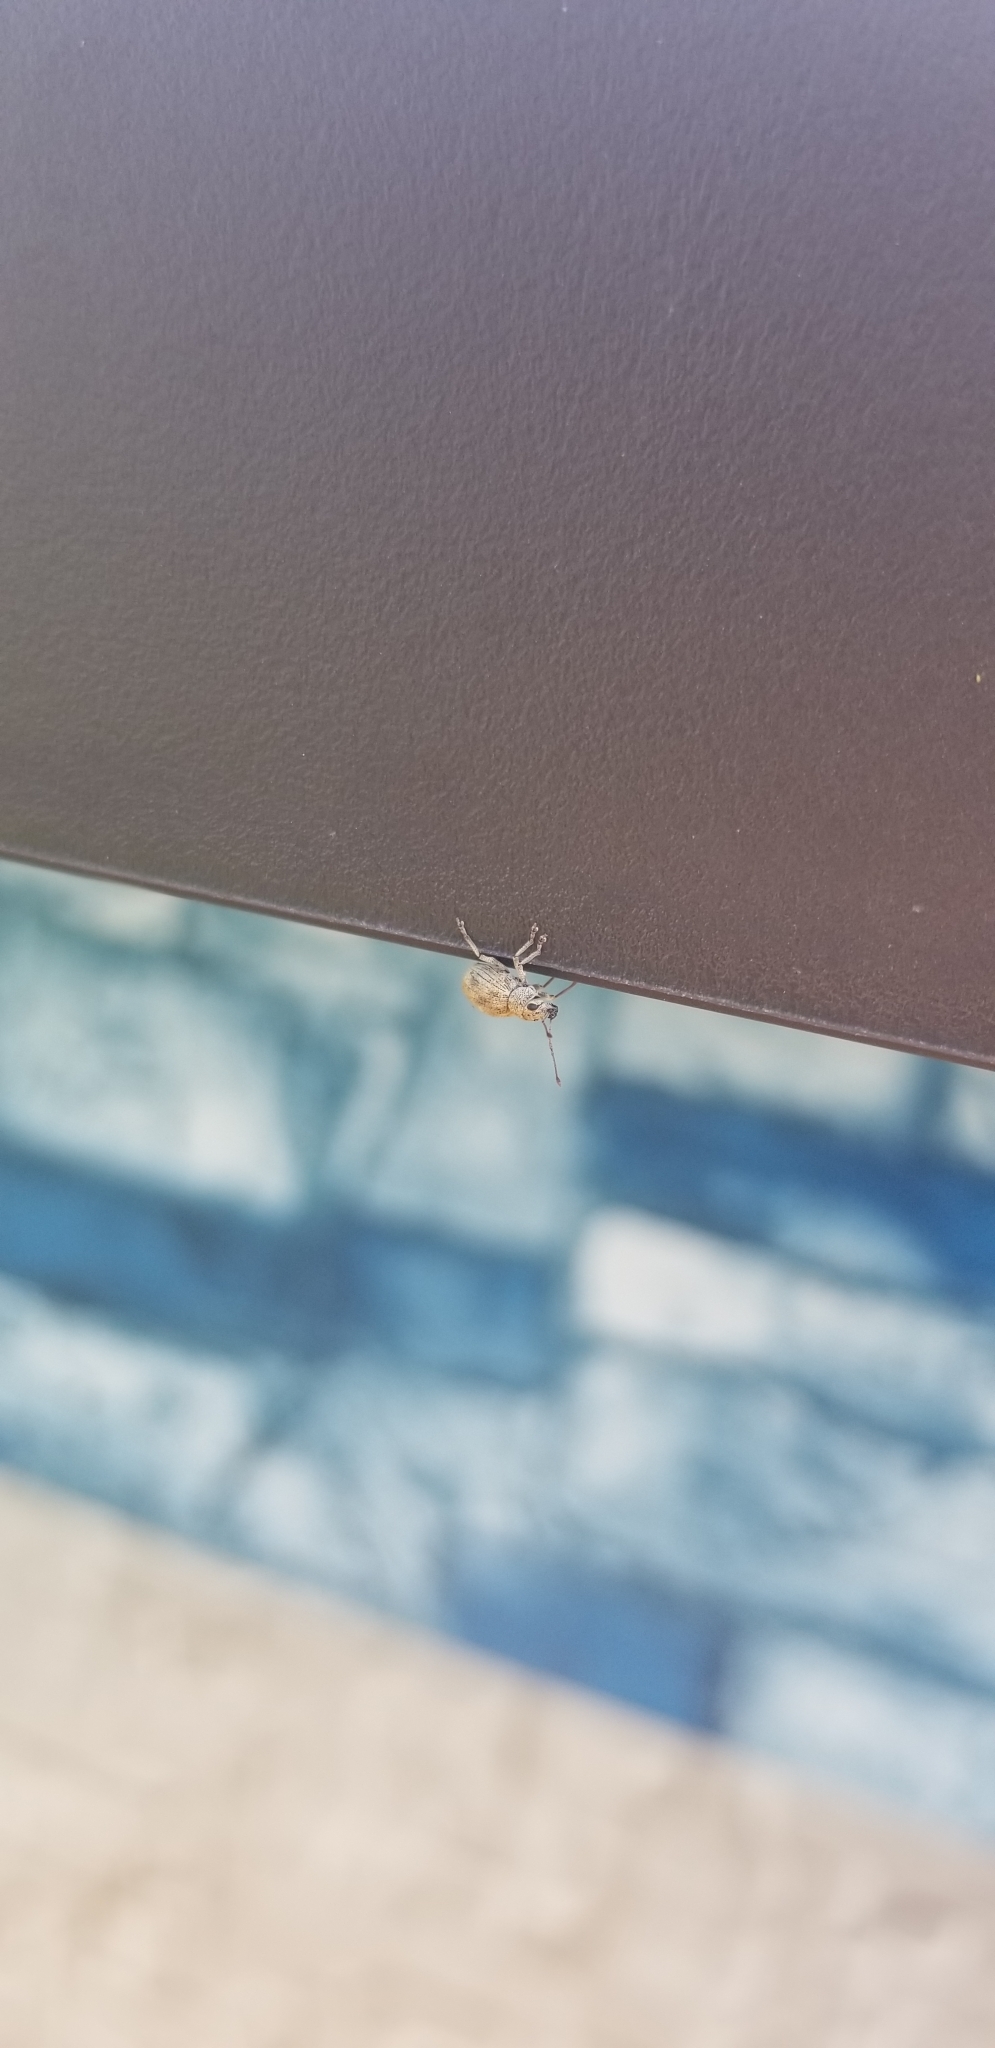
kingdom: Animalia
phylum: Arthropoda
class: Insecta
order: Coleoptera
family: Curculionidae
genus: Calomycterus
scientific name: Calomycterus setarius
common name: Weevil
